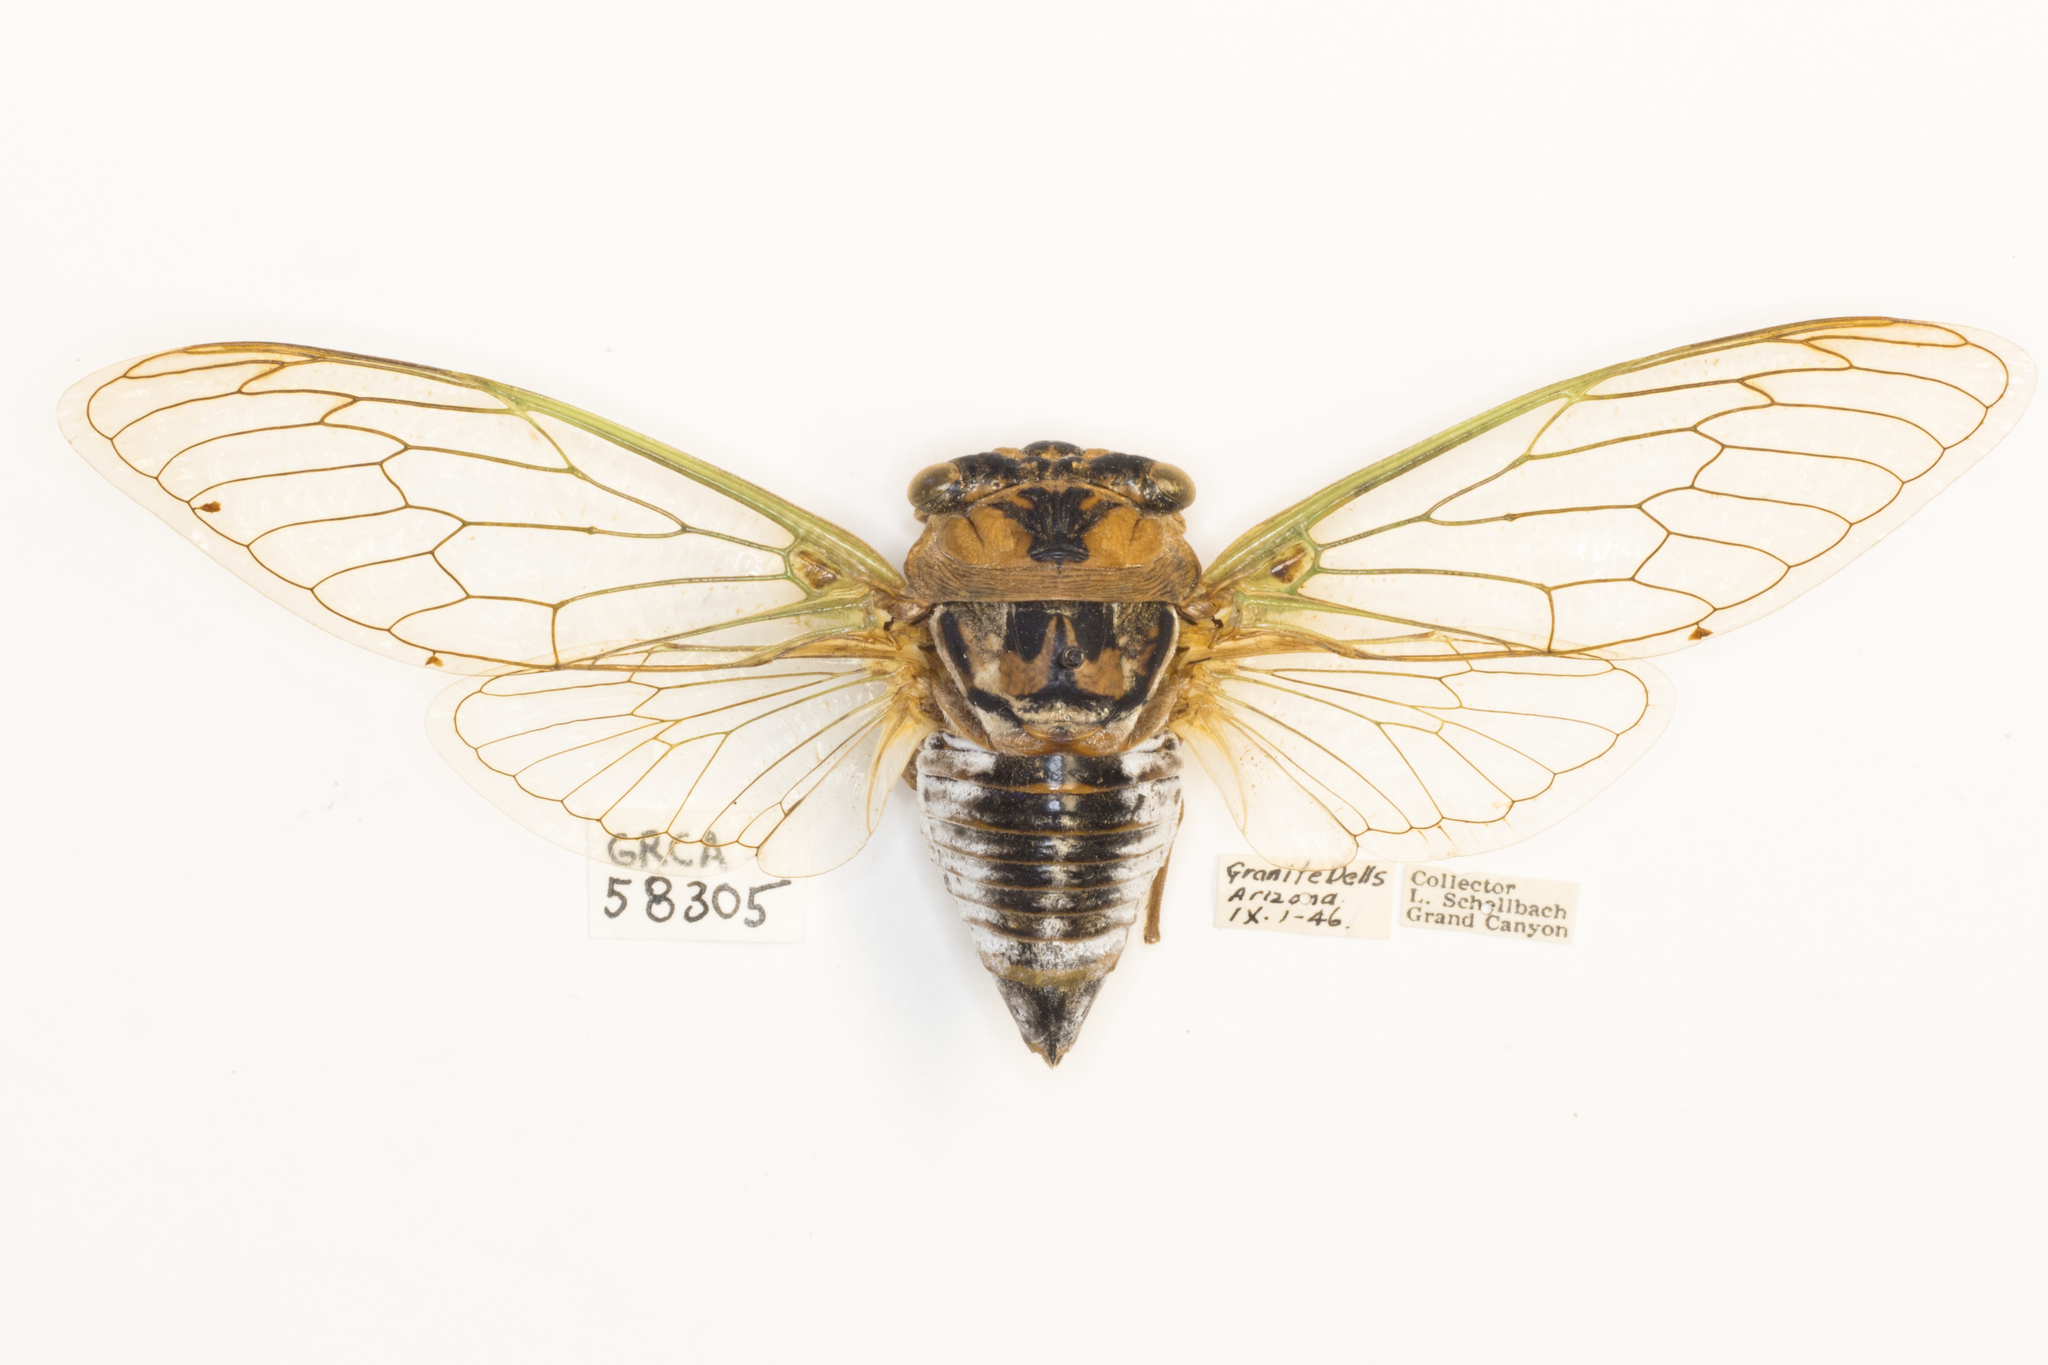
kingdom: Animalia
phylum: Arthropoda
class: Insecta
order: Hemiptera
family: Cicadidae
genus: Megatibicen
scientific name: Megatibicen cultriformis
